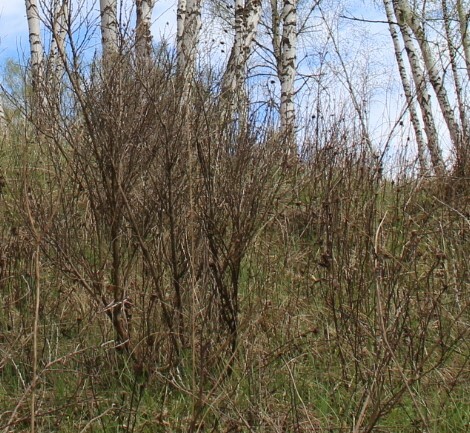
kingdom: Plantae
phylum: Tracheophyta
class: Magnoliopsida
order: Fabales
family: Fabaceae
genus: Chamaecytisus
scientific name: Chamaecytisus ruthenicus
